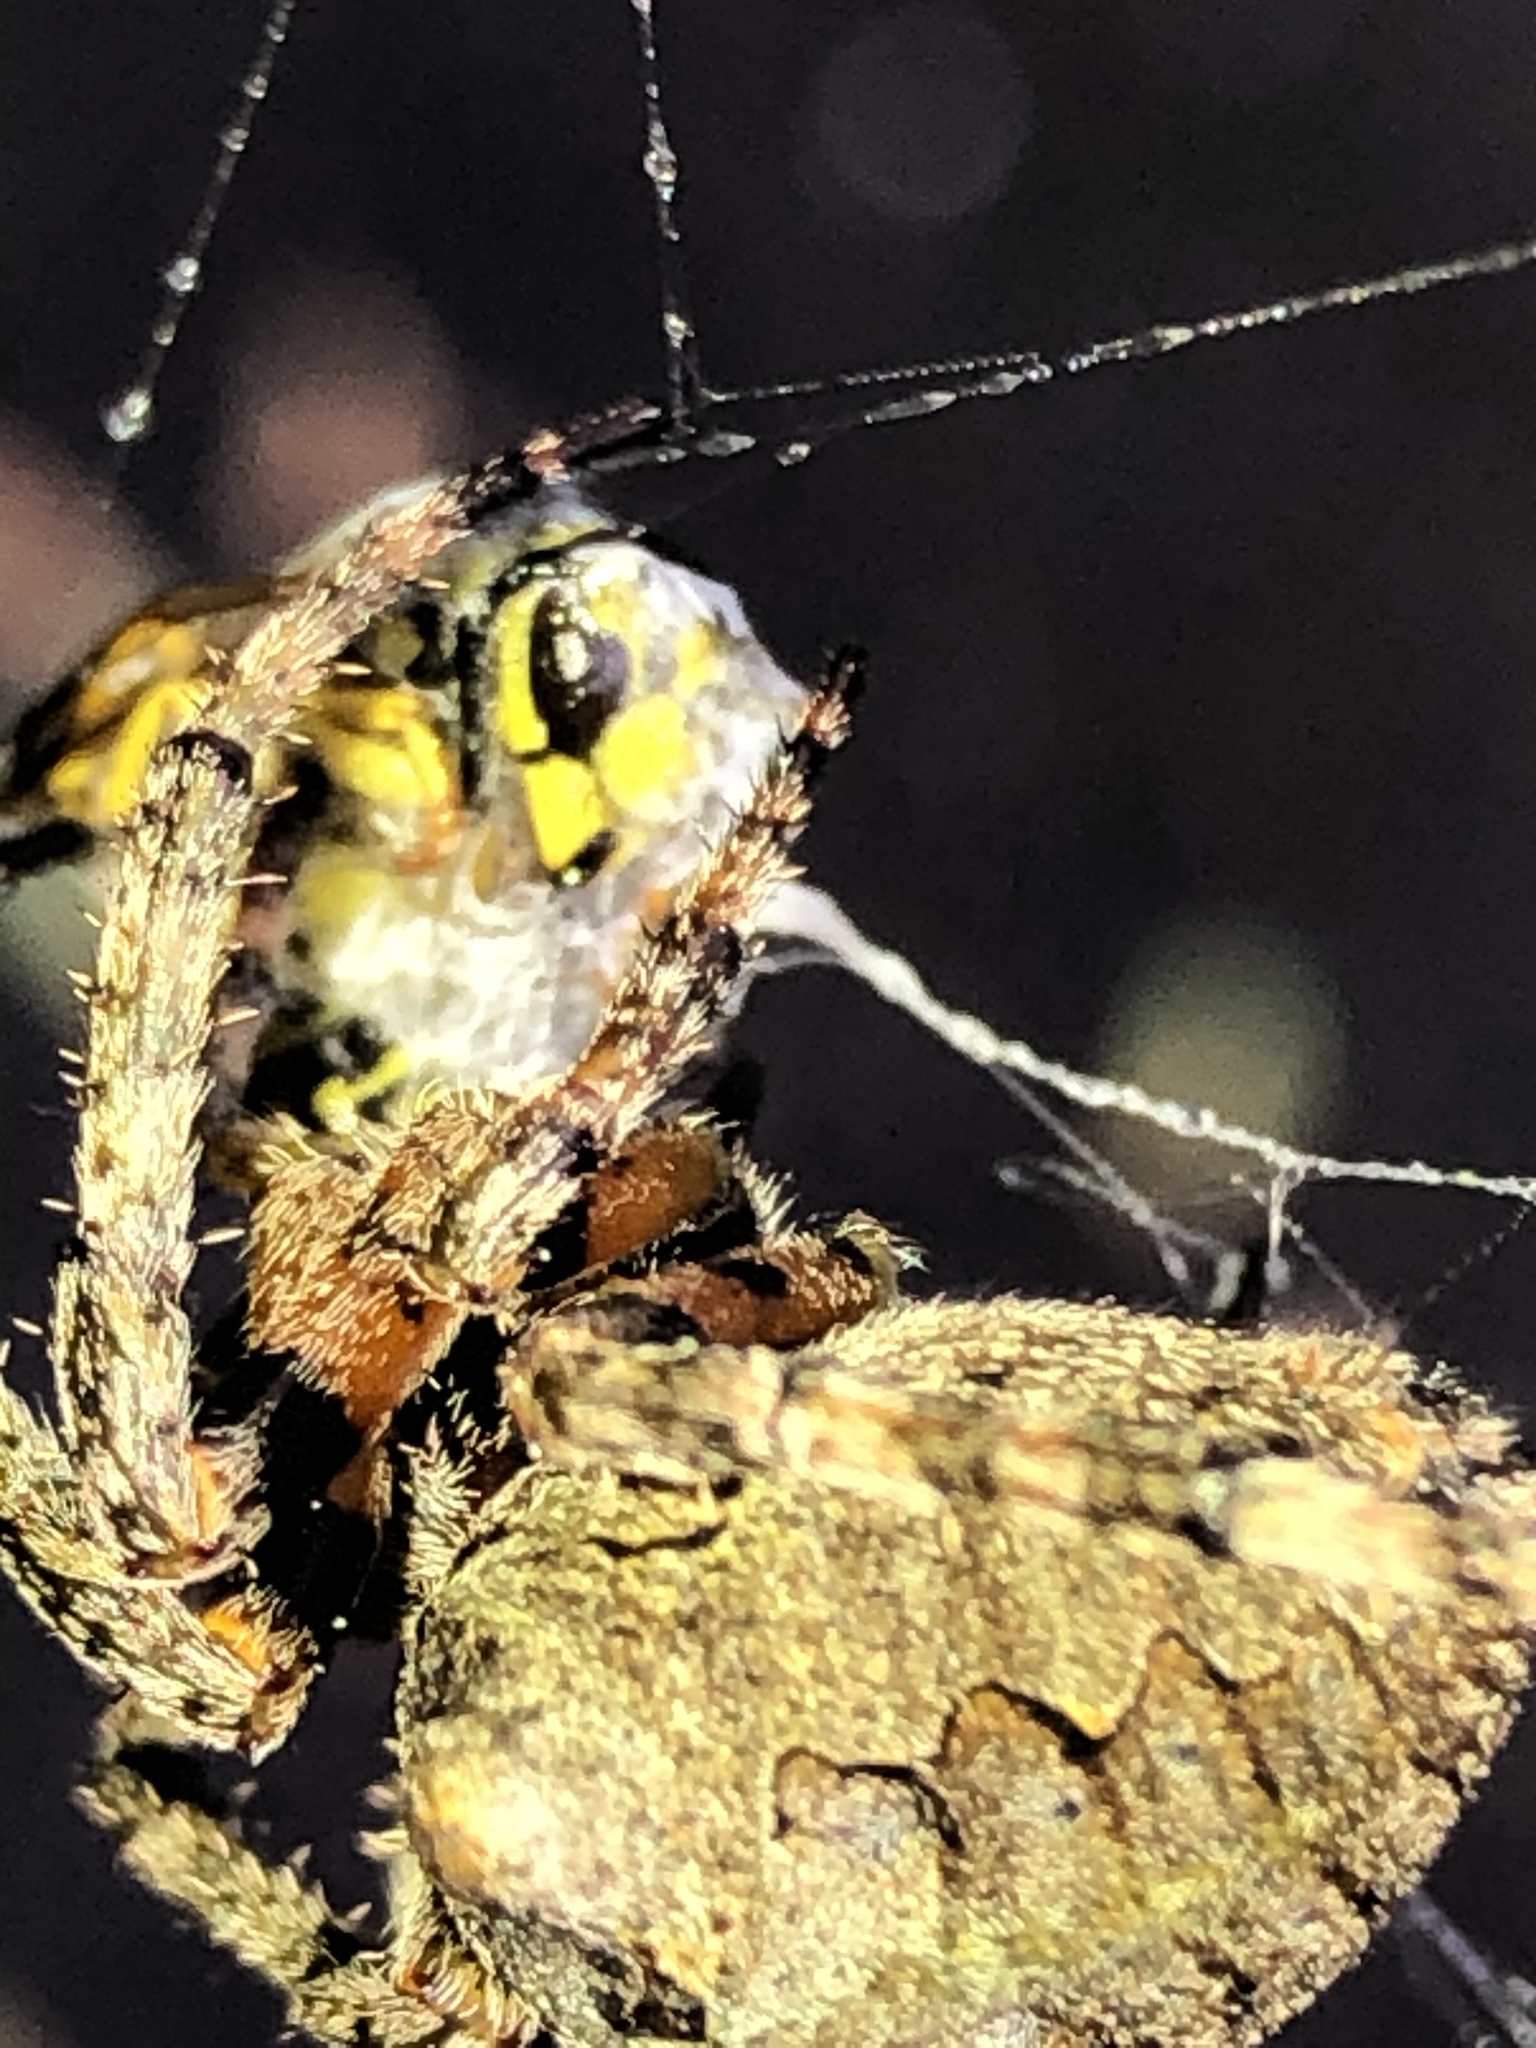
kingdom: Animalia
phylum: Arthropoda
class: Arachnida
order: Araneae
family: Araneidae
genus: Araneus
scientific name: Araneus bicentenarius
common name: Giant lichen orbweaver
